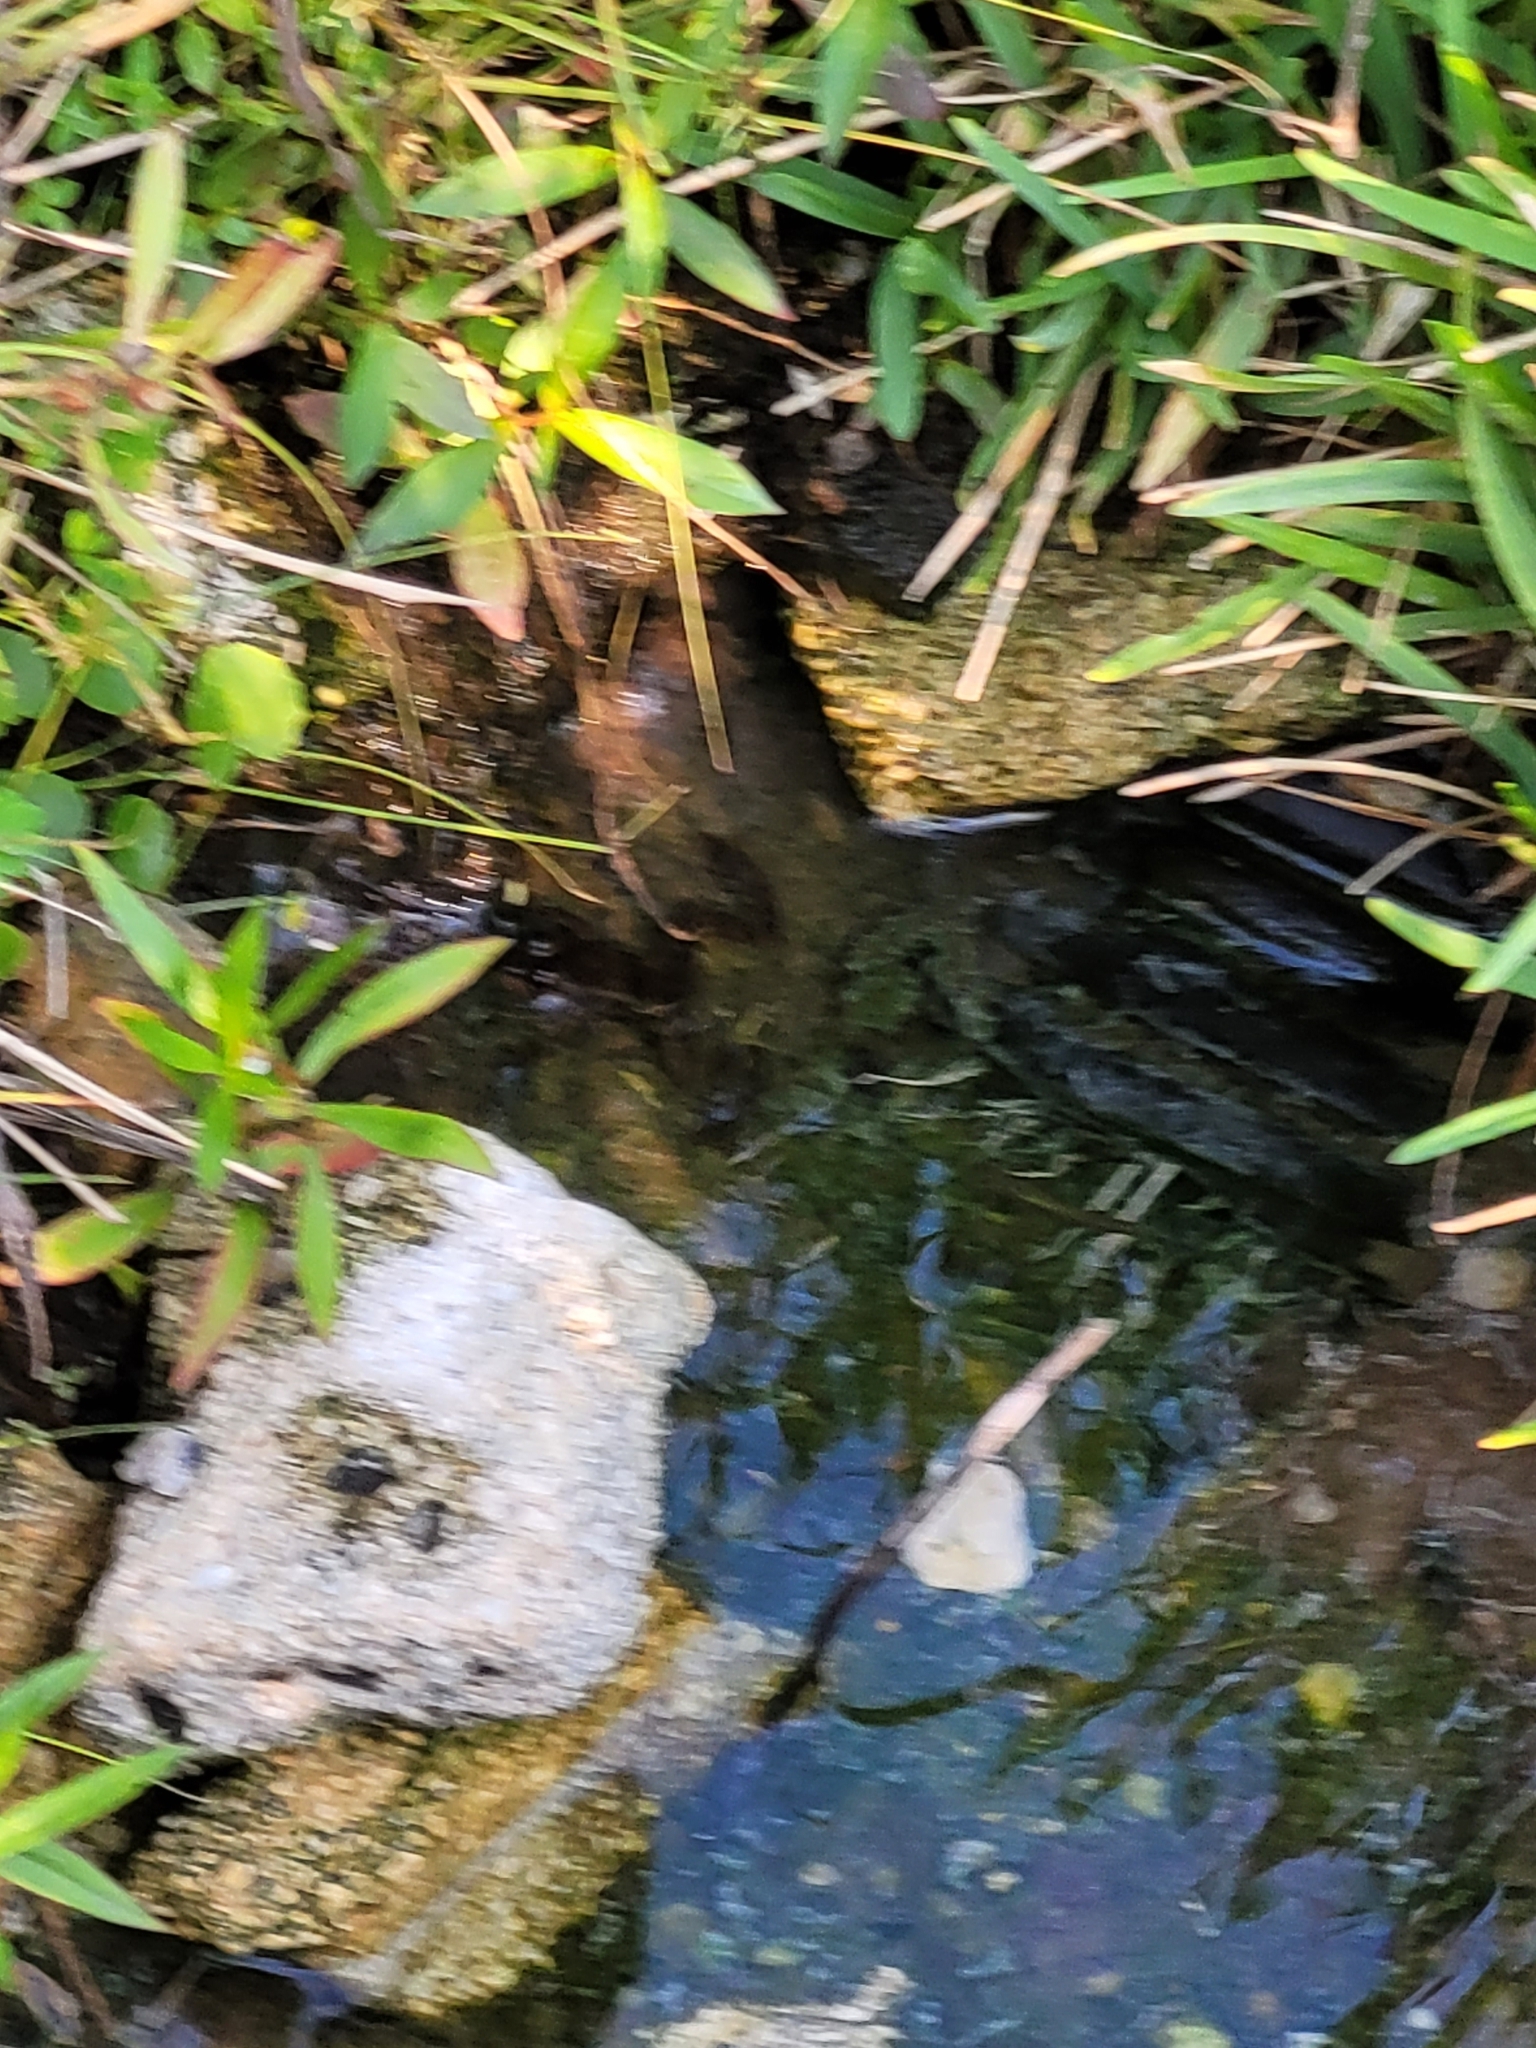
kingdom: Animalia
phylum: Chordata
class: Amphibia
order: Anura
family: Ranidae
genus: Lithobates
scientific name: Lithobates grylio
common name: Pig frog
